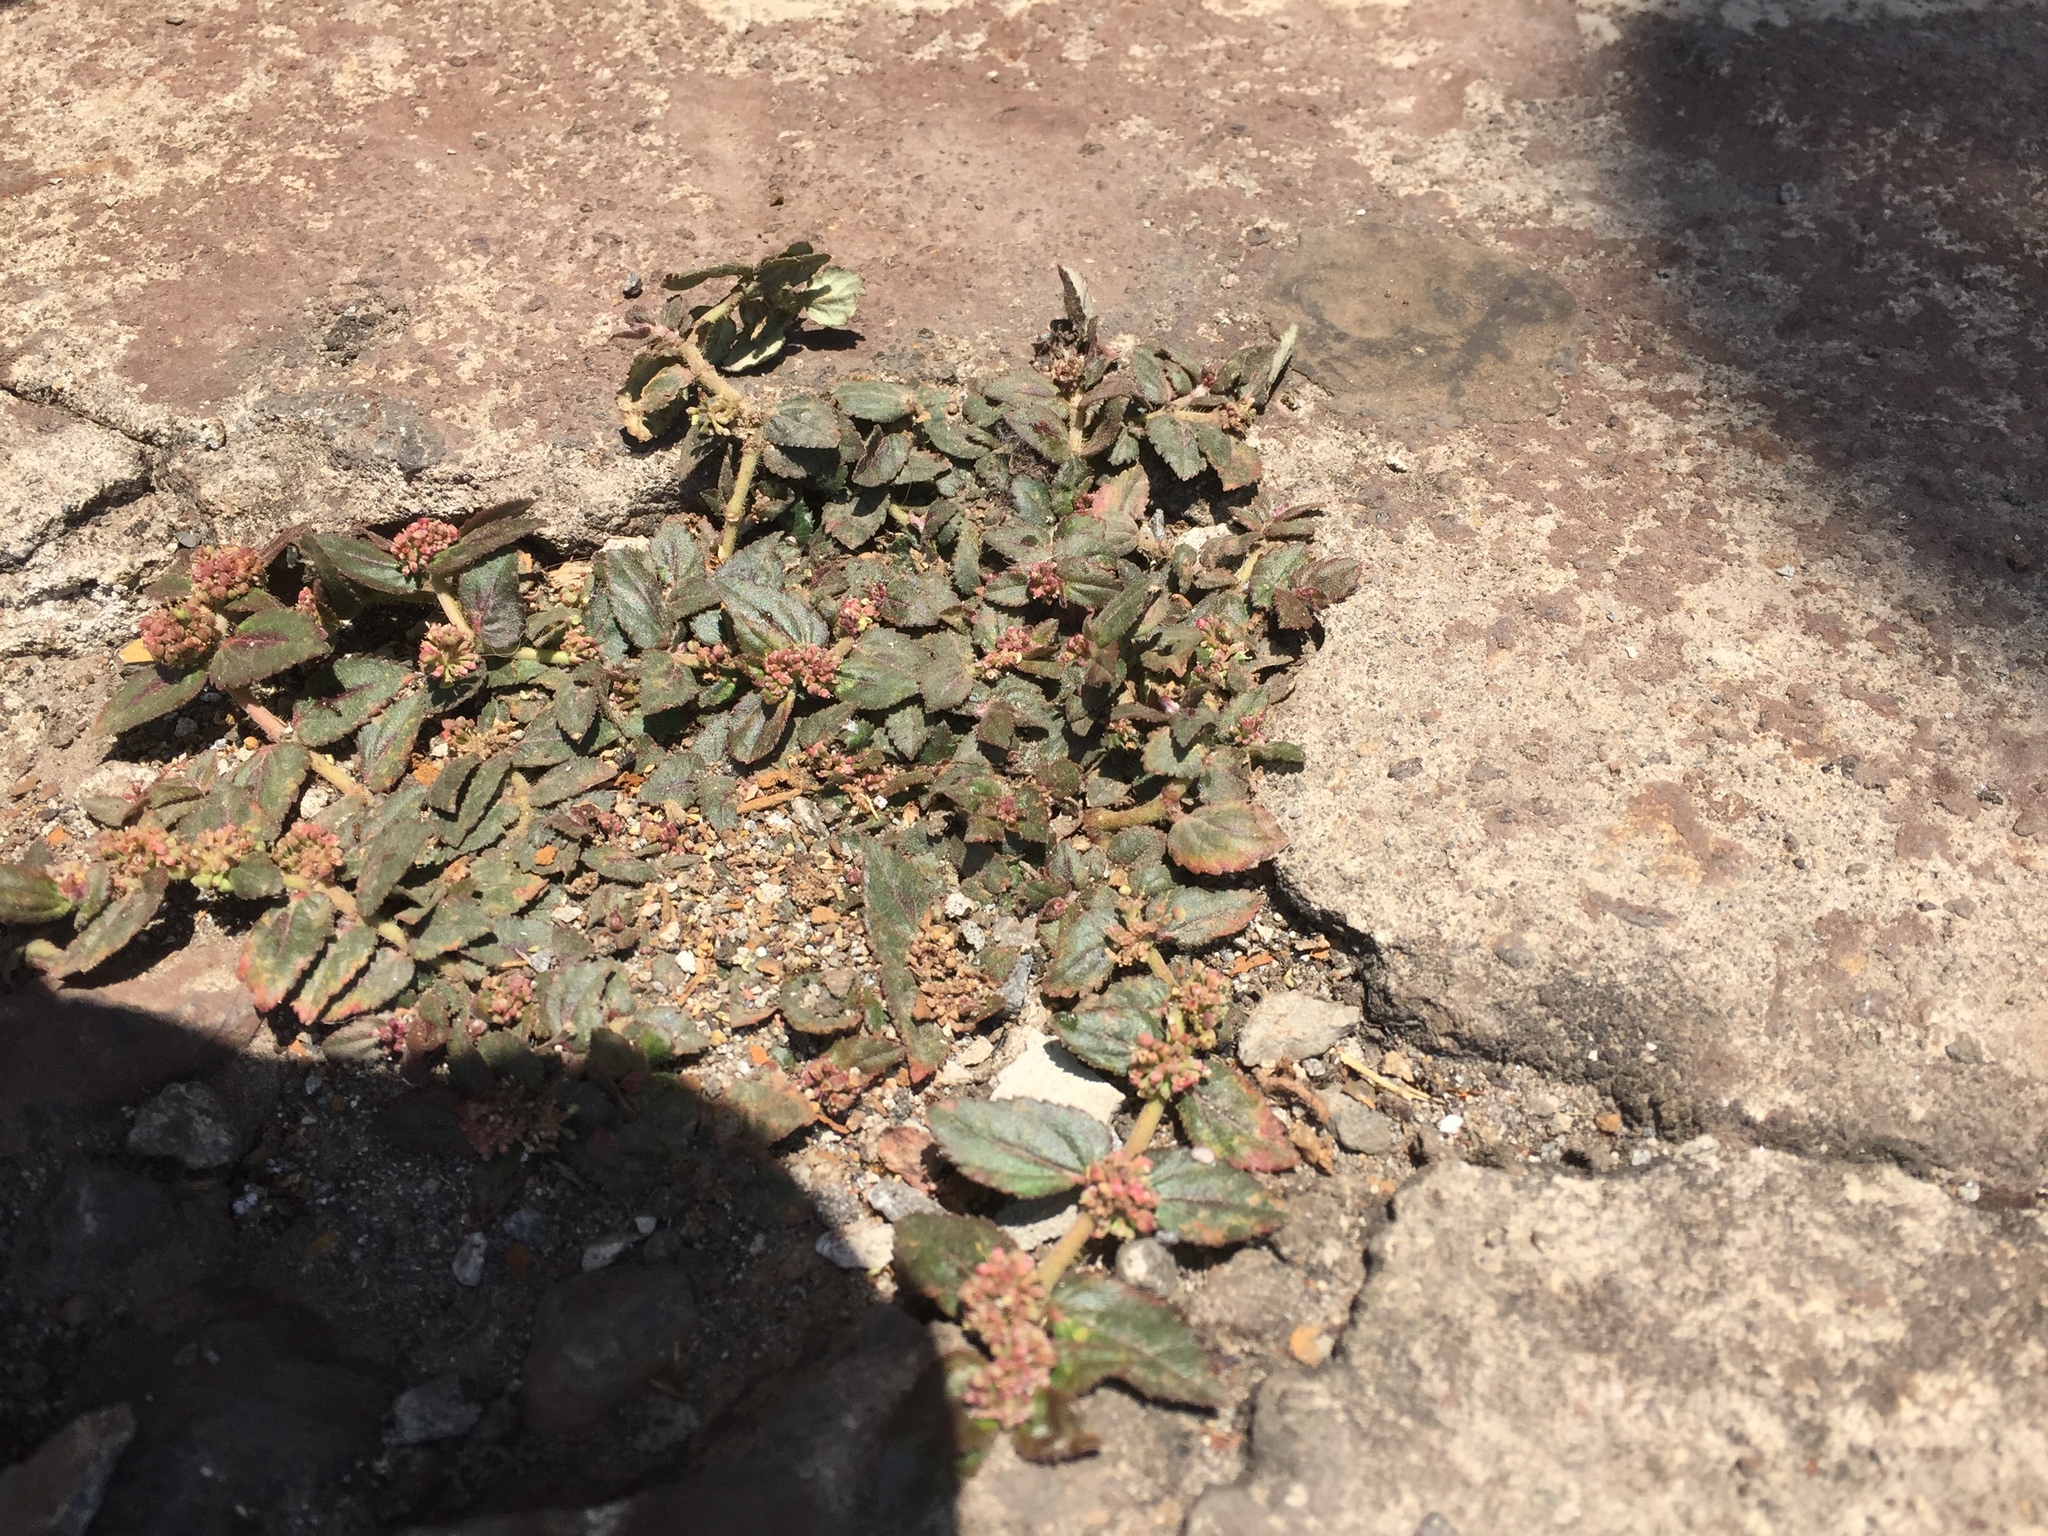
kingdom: Plantae
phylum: Tracheophyta
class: Magnoliopsida
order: Malpighiales
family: Euphorbiaceae
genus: Euphorbia
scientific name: Euphorbia hirta
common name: Pillpod sandmat
